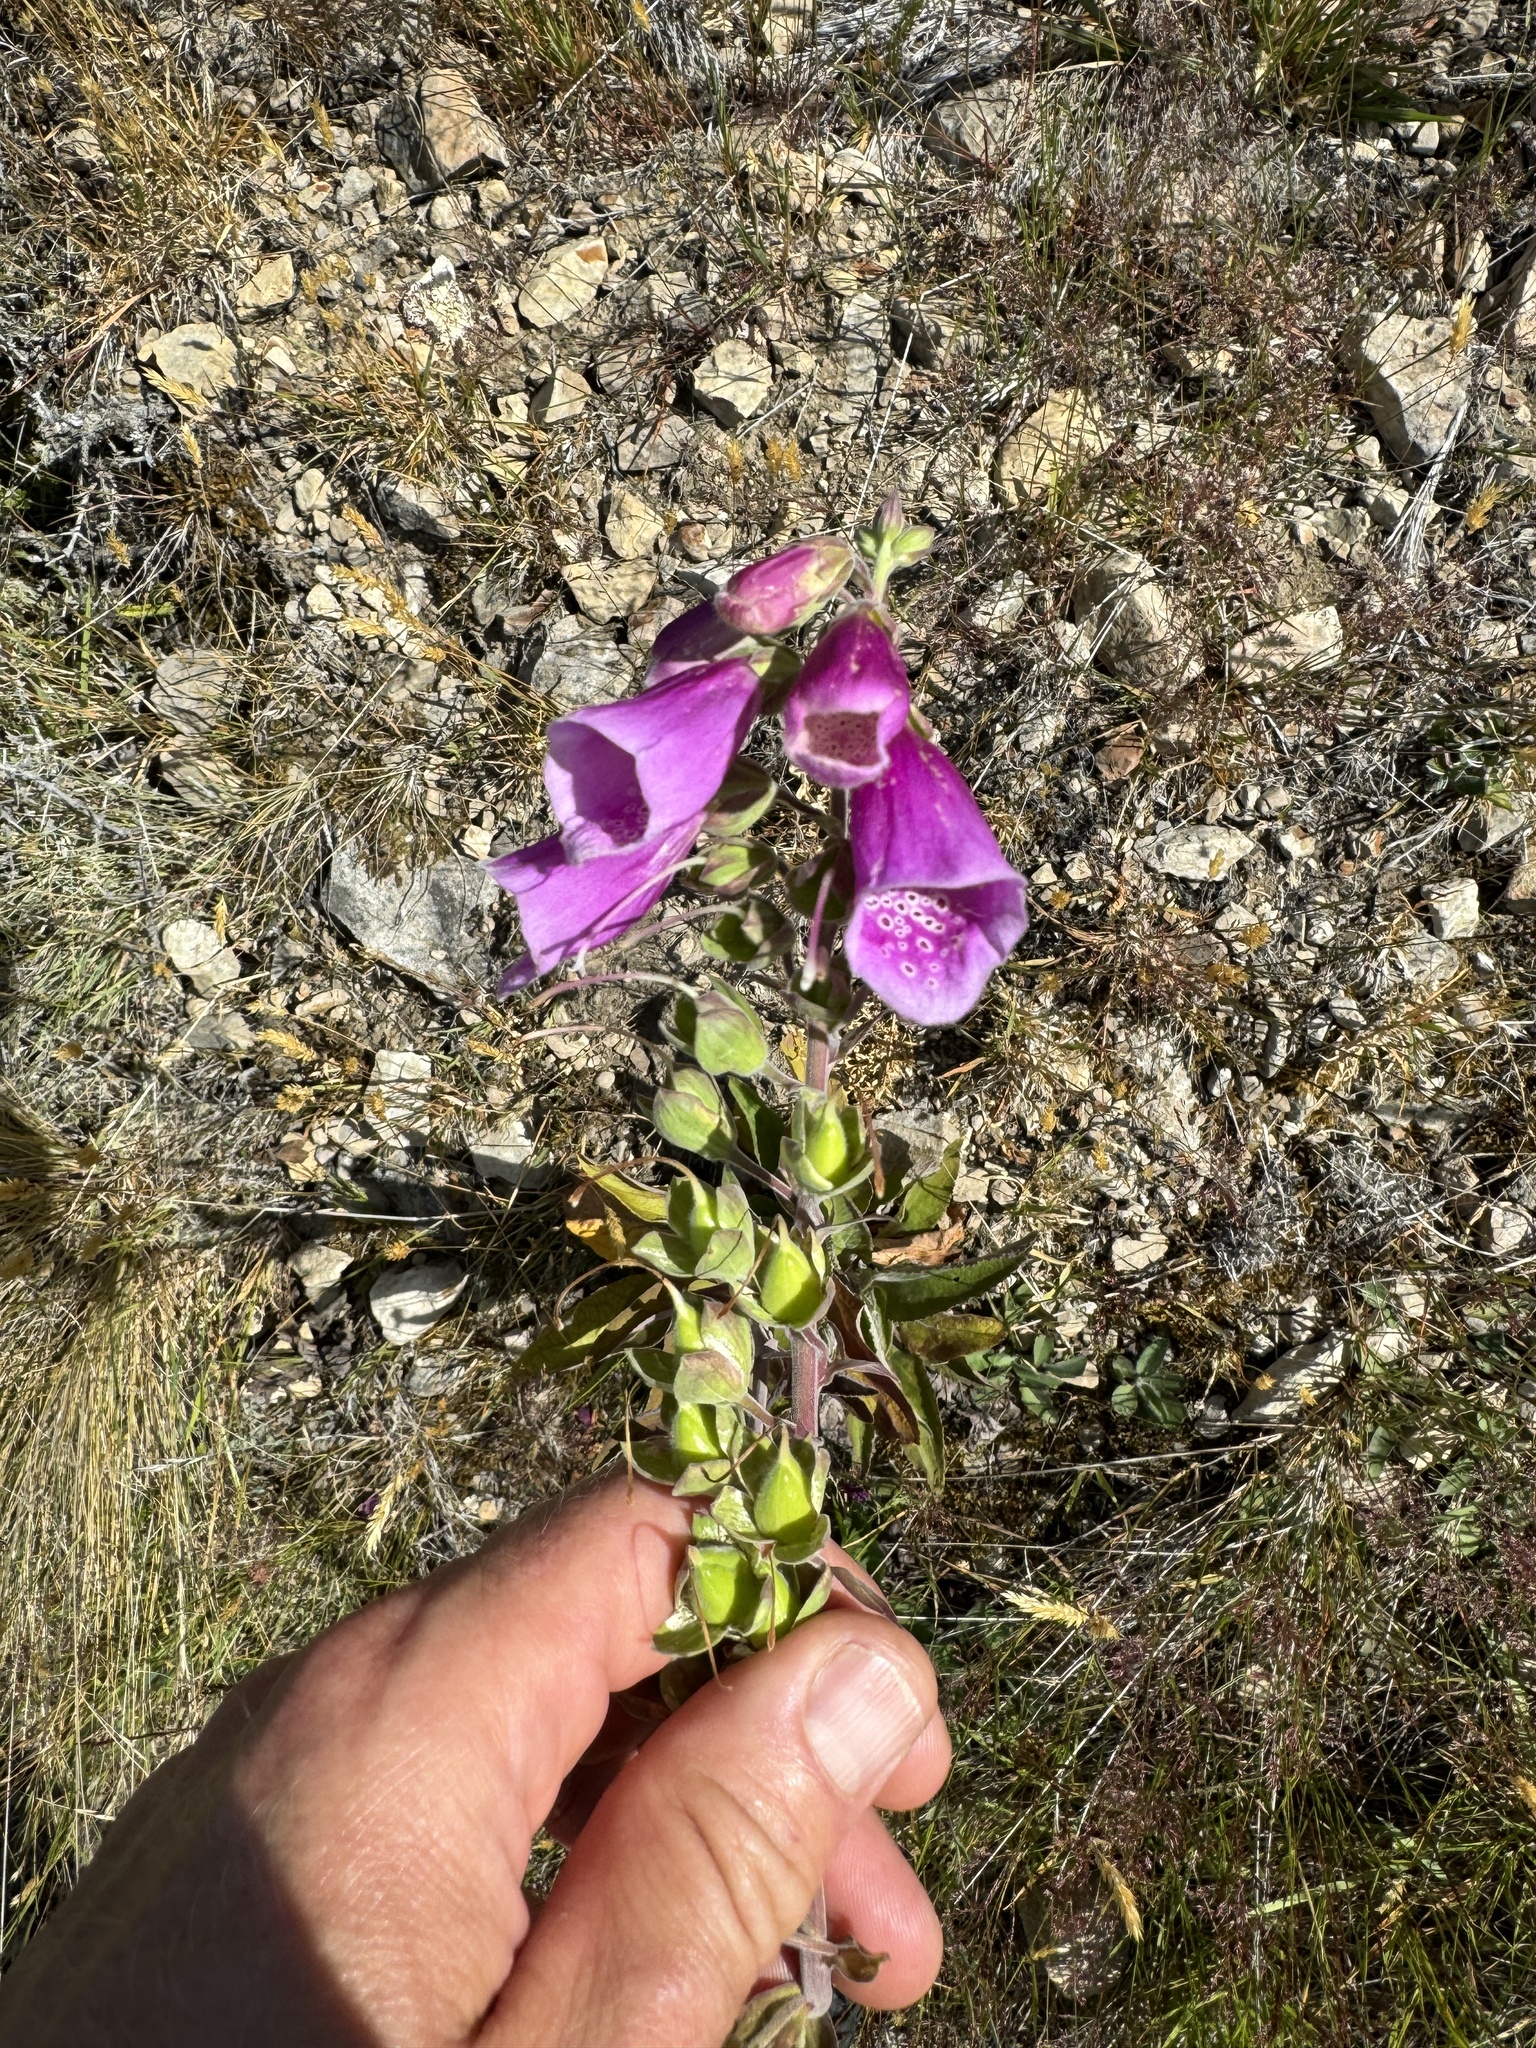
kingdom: Plantae
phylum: Tracheophyta
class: Magnoliopsida
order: Lamiales
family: Plantaginaceae
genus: Digitalis
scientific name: Digitalis purpurea
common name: Foxglove
